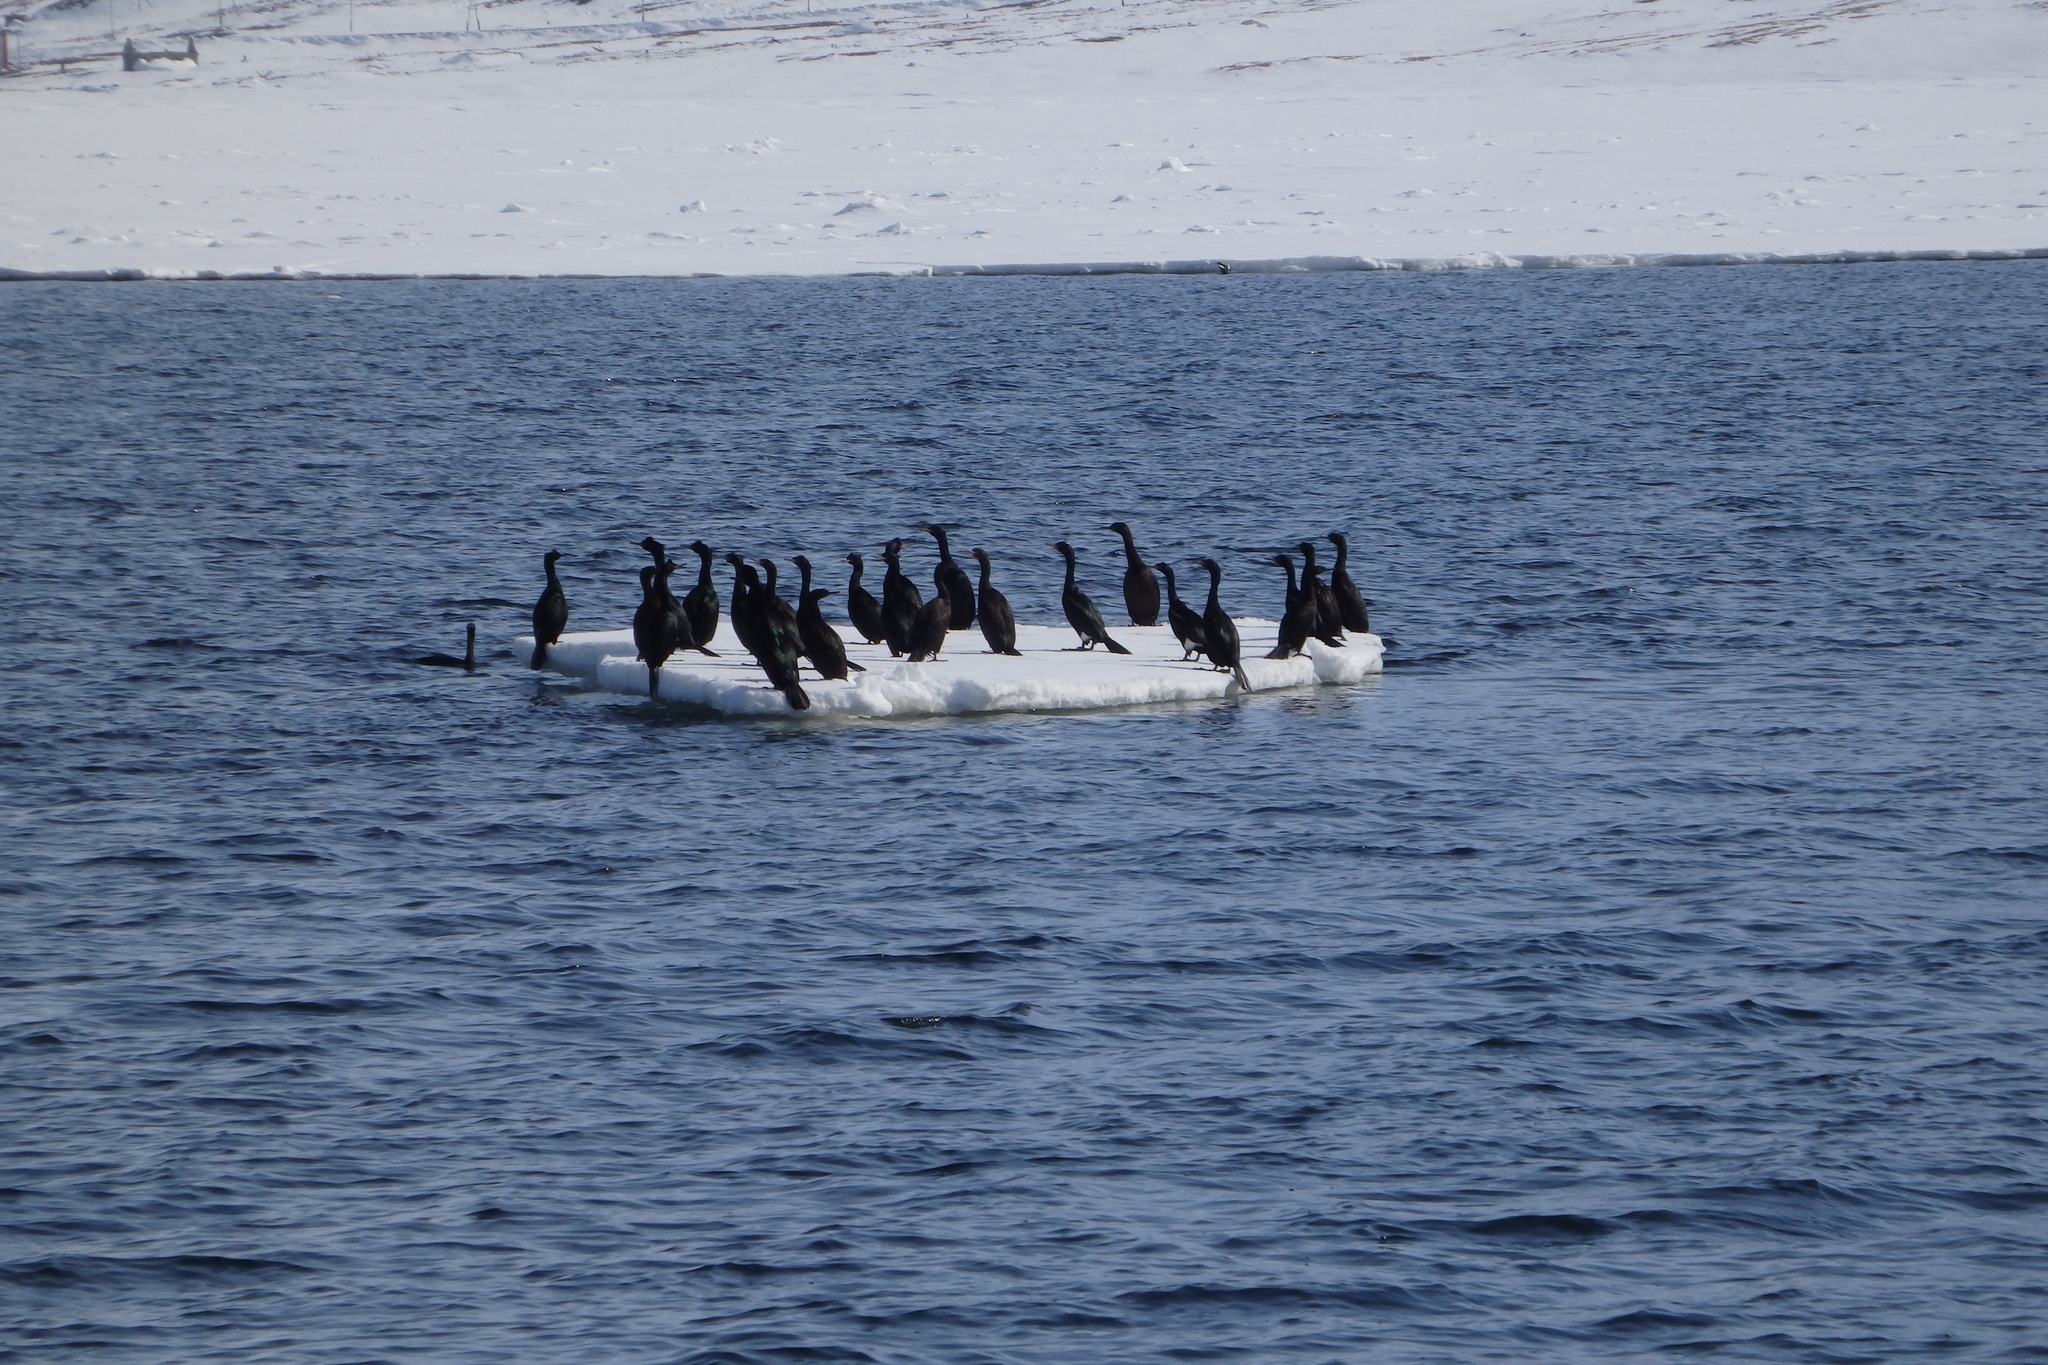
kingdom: Animalia
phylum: Chordata
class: Aves
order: Suliformes
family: Phalacrocoracidae
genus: Phalacrocorax
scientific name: Phalacrocorax pelagicus
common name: Pelagic cormorant
